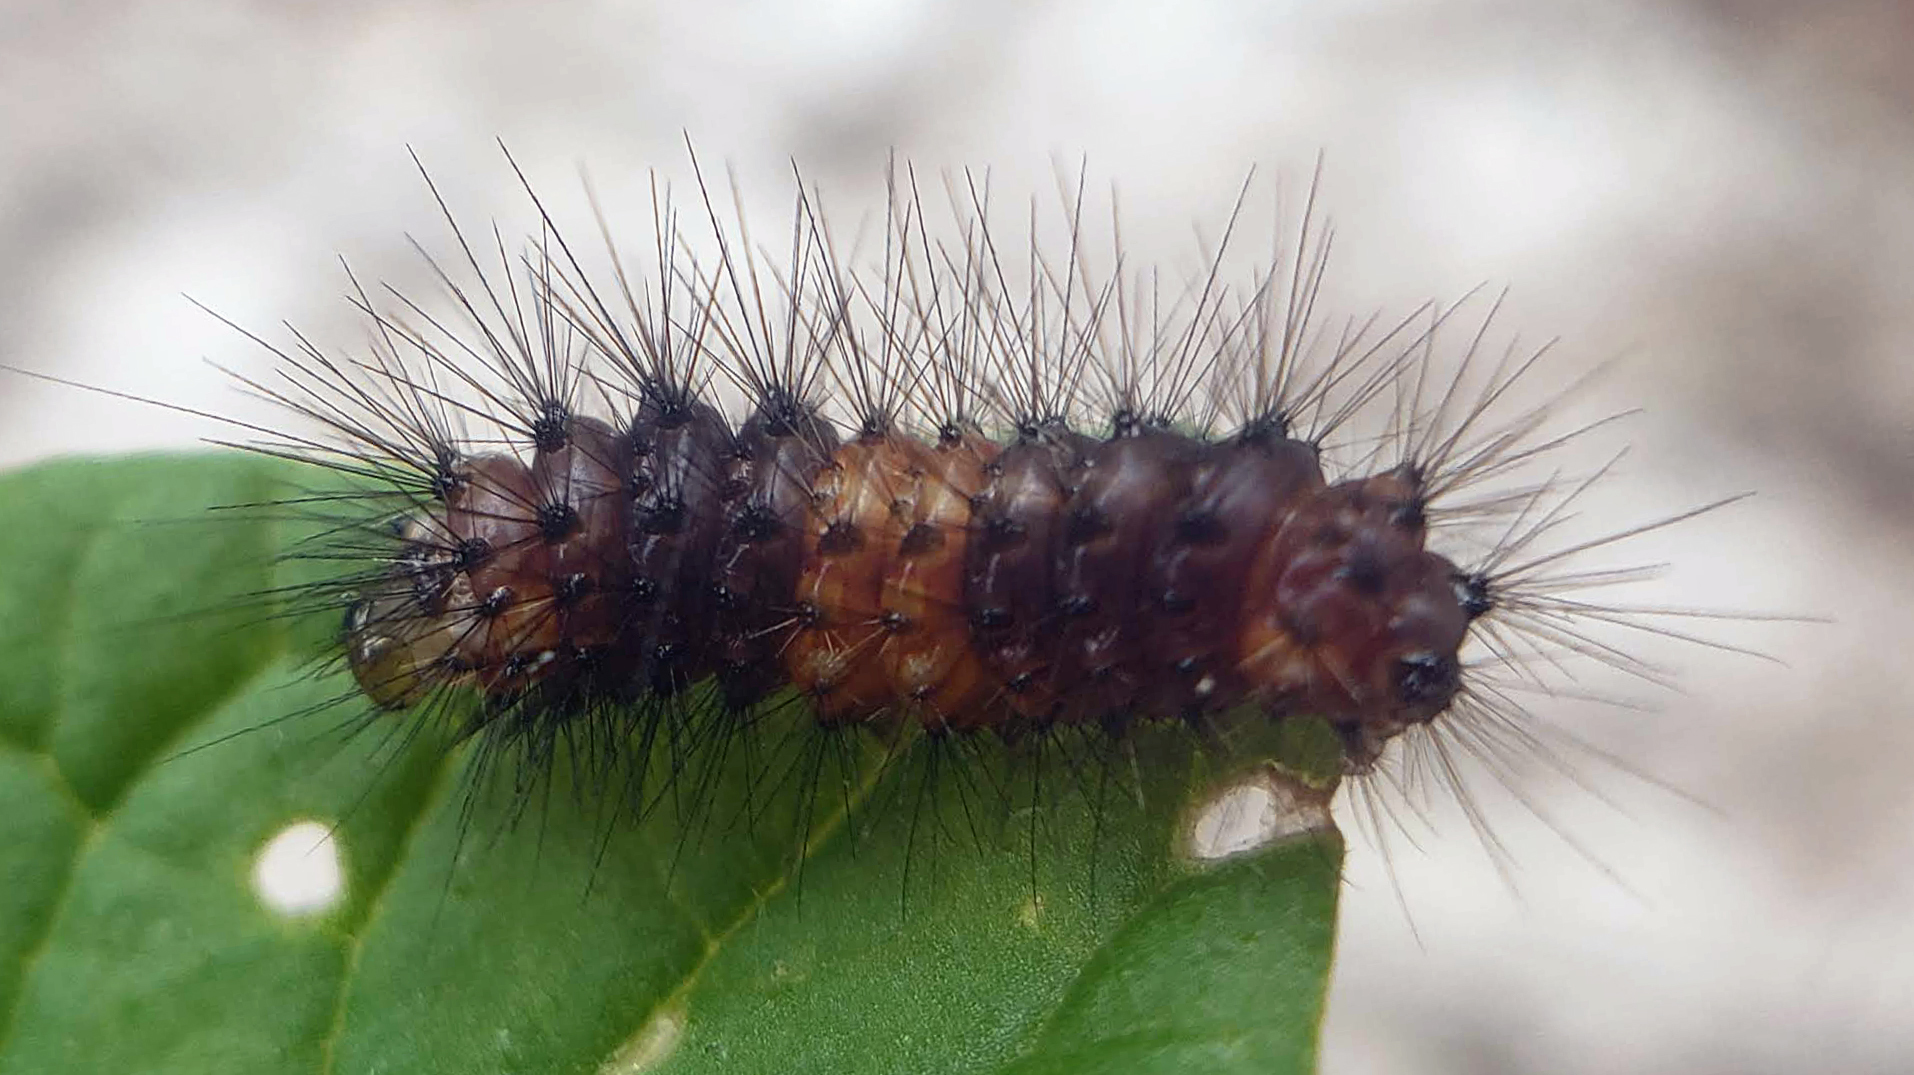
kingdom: Animalia
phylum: Arthropoda
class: Insecta
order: Lepidoptera
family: Erebidae
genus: Hypercompe
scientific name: Hypercompe scribonia
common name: Giant leopard moth
